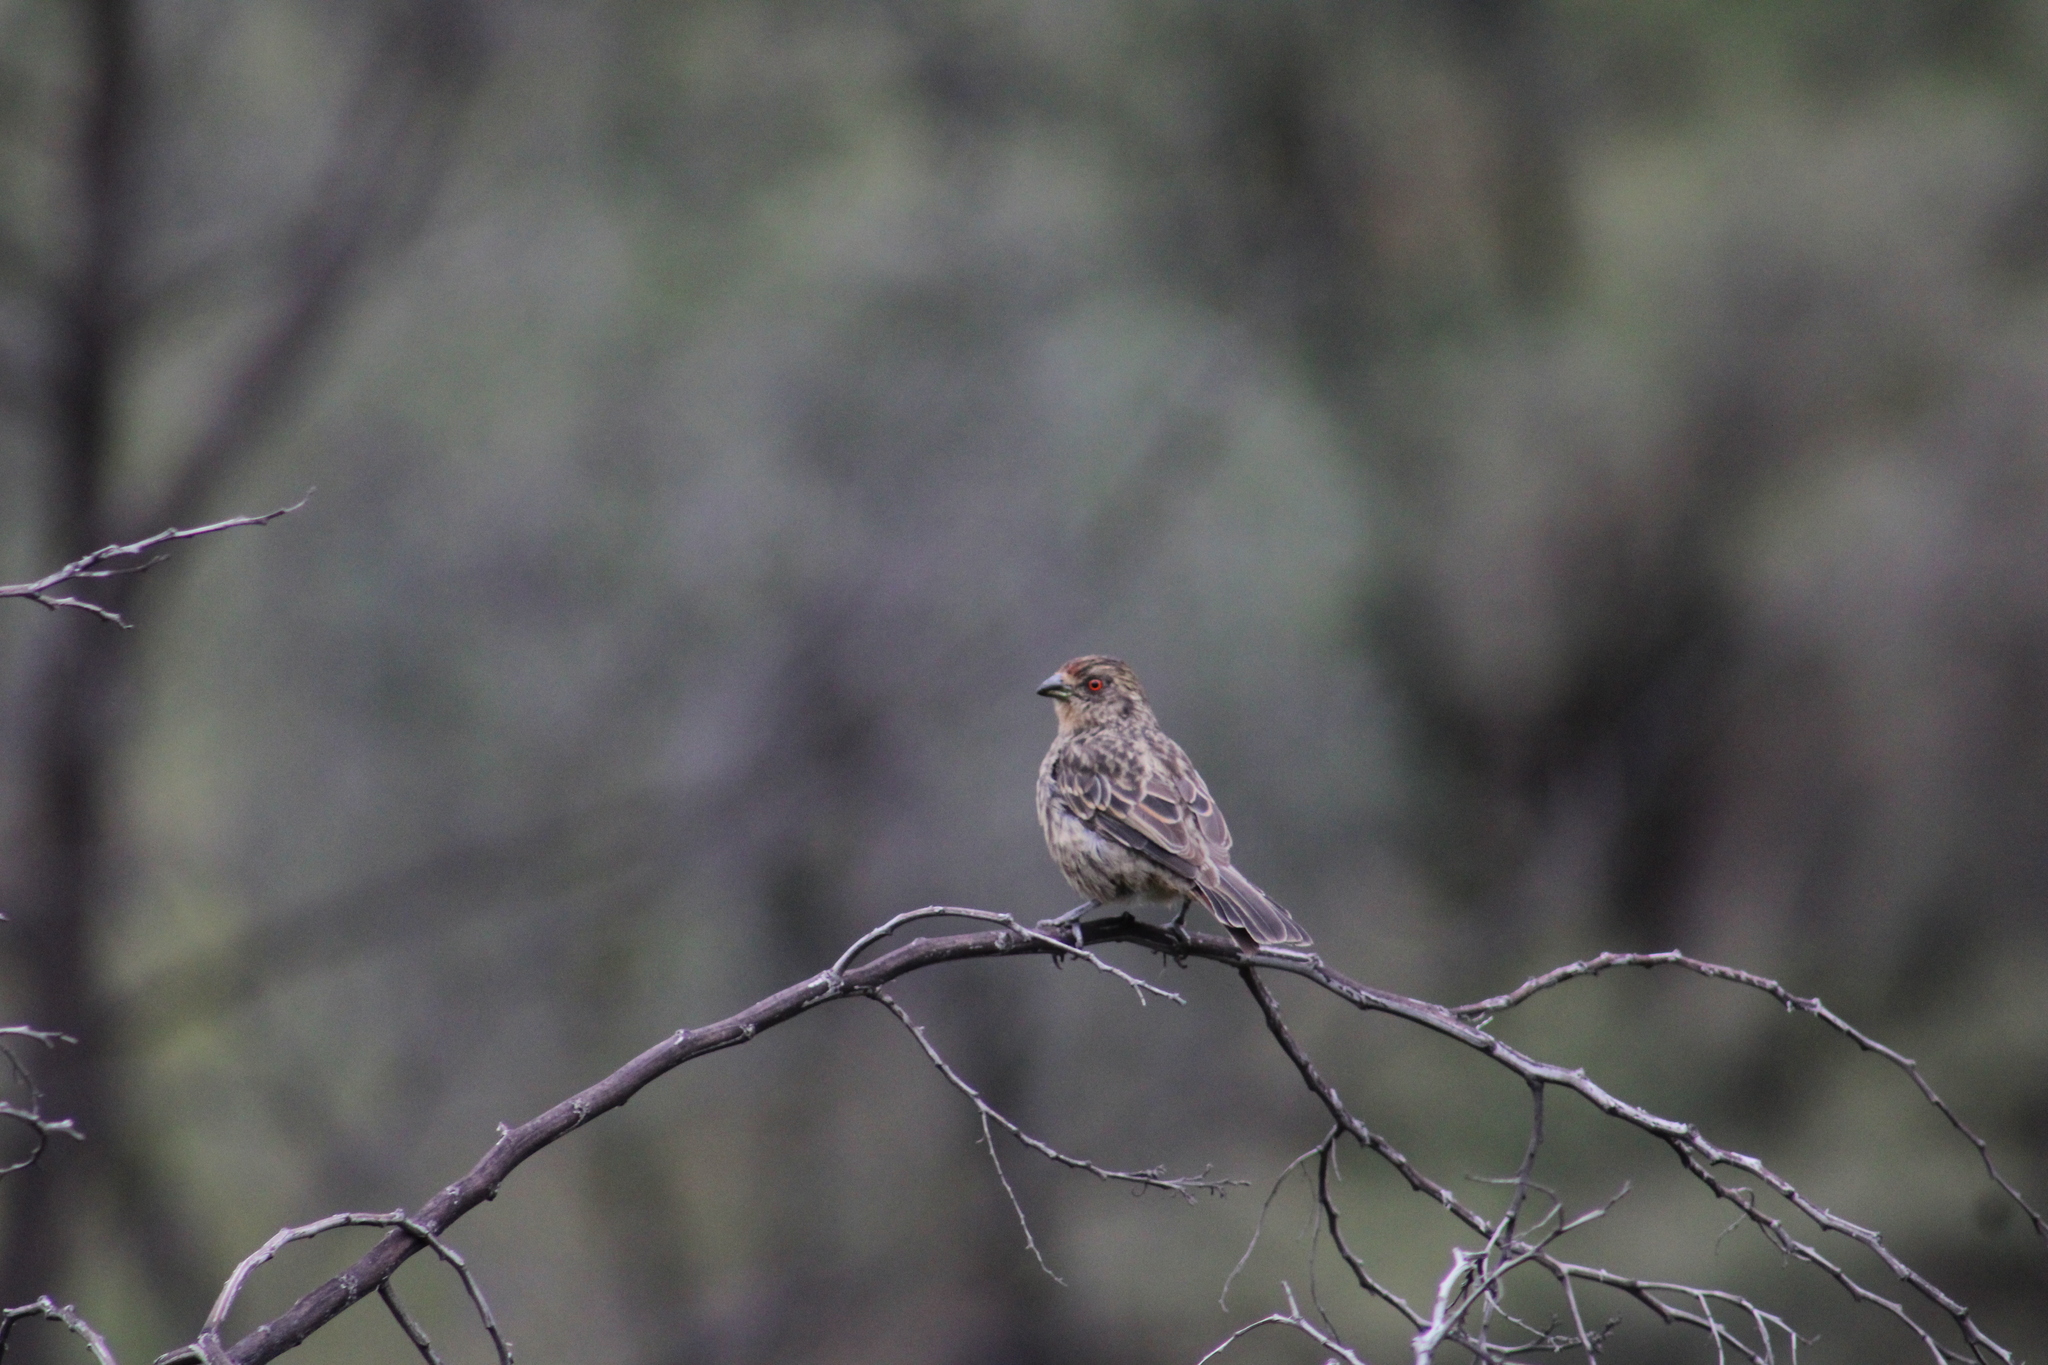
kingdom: Animalia
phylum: Chordata
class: Aves
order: Passeriformes
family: Cotingidae
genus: Phytotoma
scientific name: Phytotoma rara
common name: Rufous-tailed plantcutter
